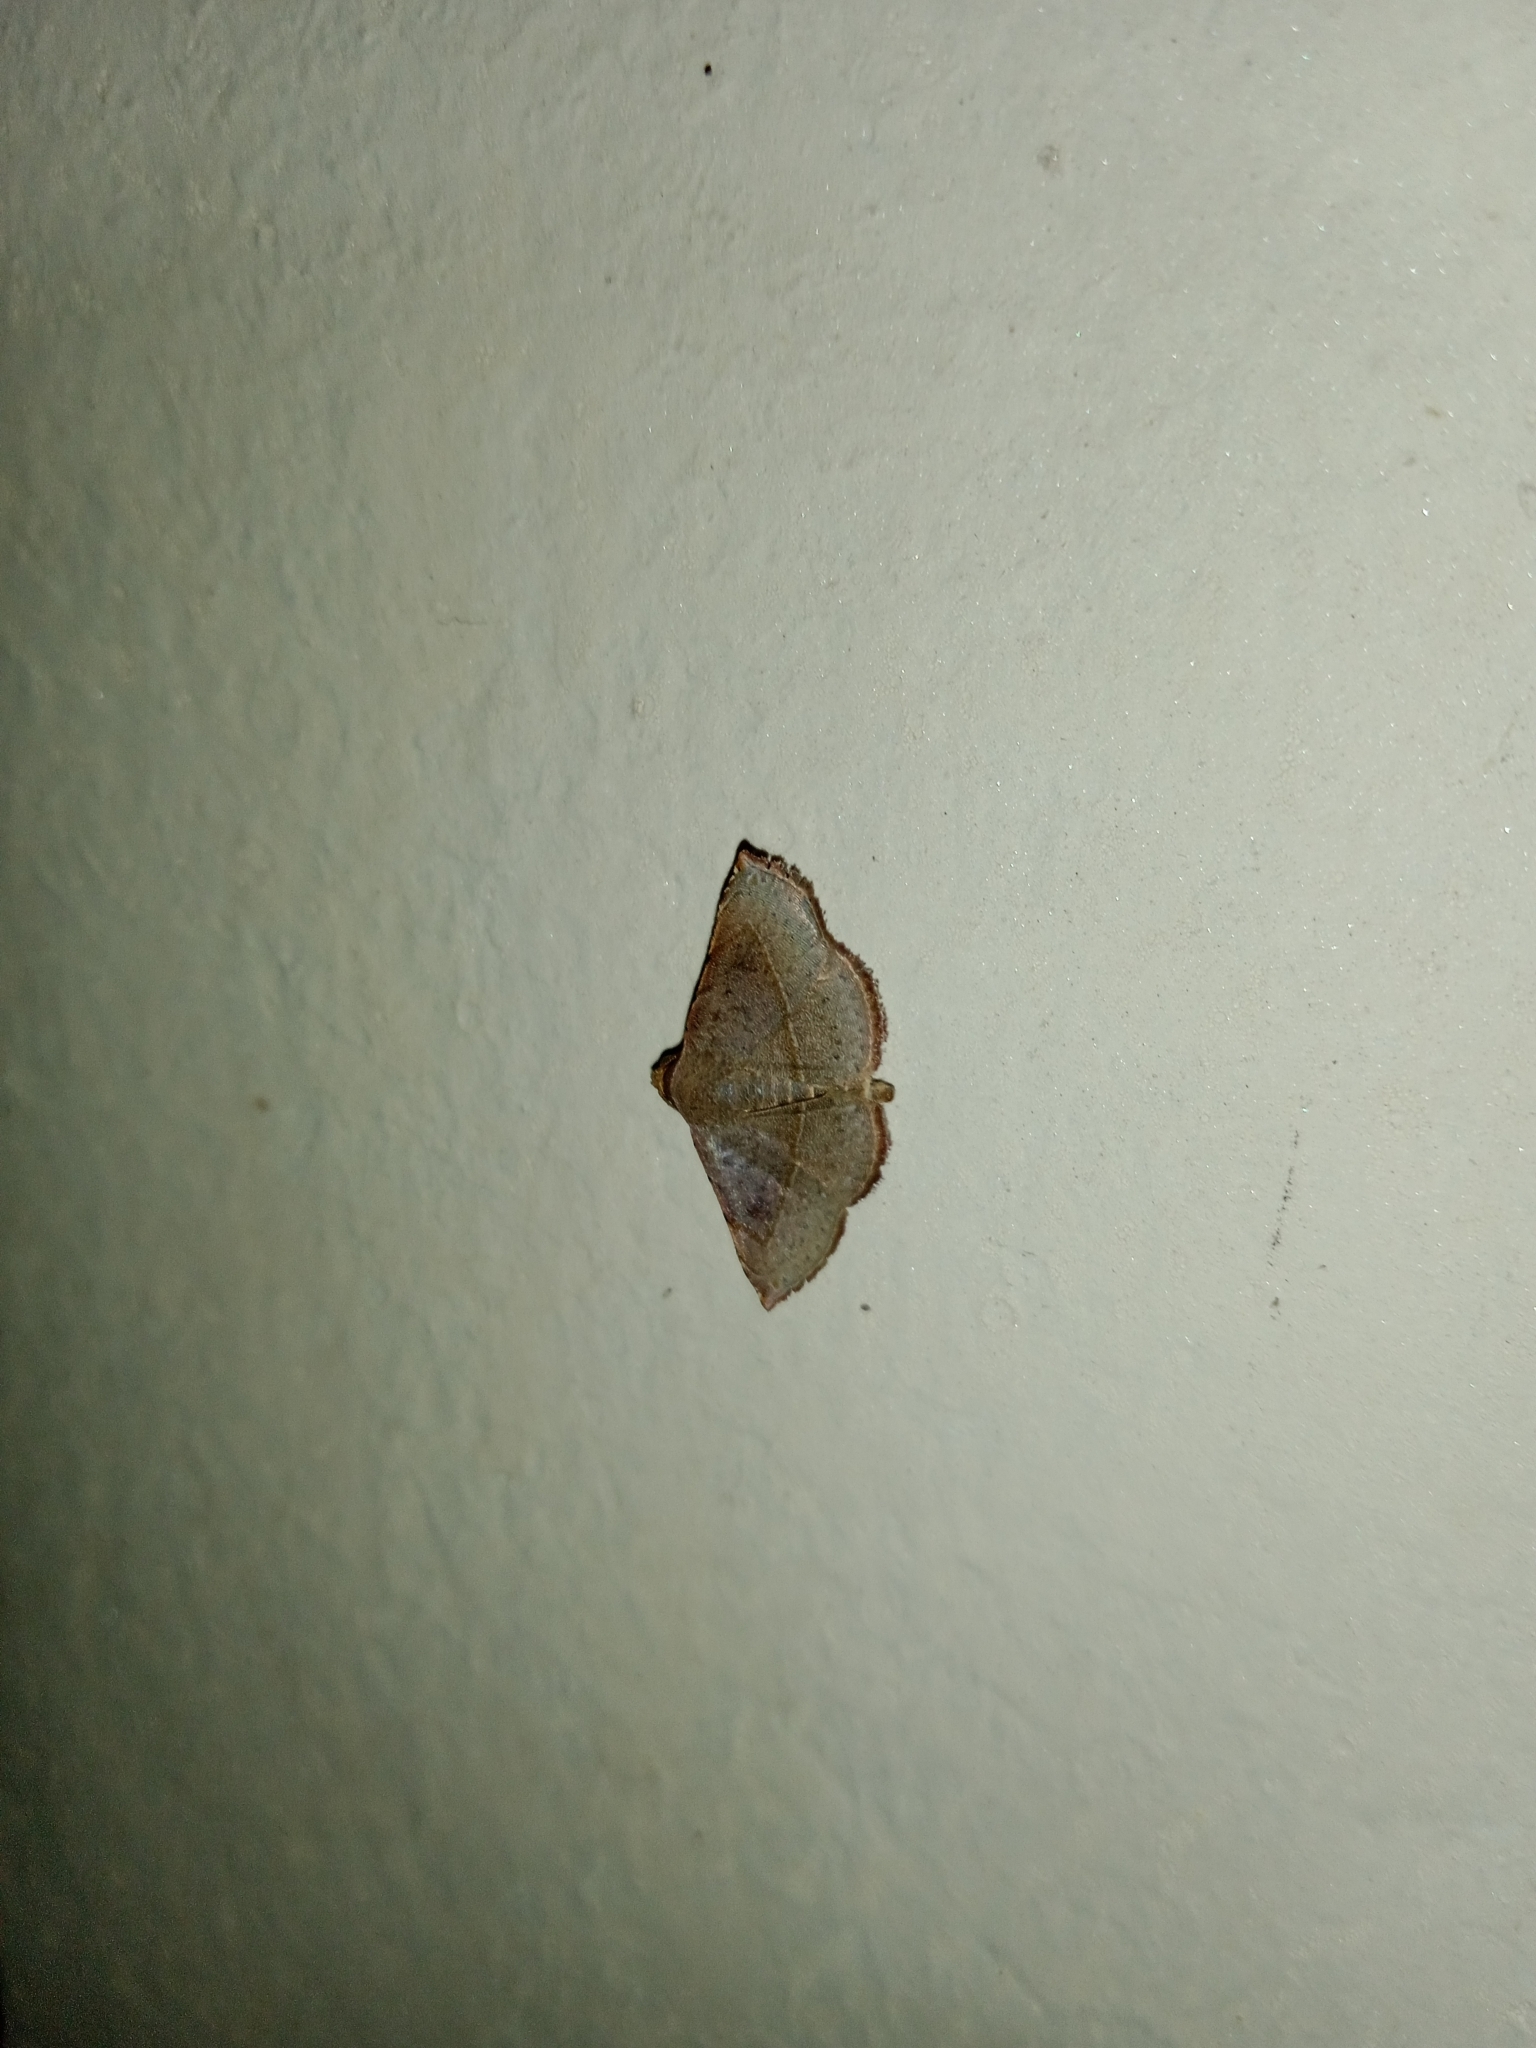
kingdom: Animalia
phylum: Arthropoda
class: Insecta
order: Lepidoptera
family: Noctuidae
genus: Eublemma
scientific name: Eublemma brachygonia
